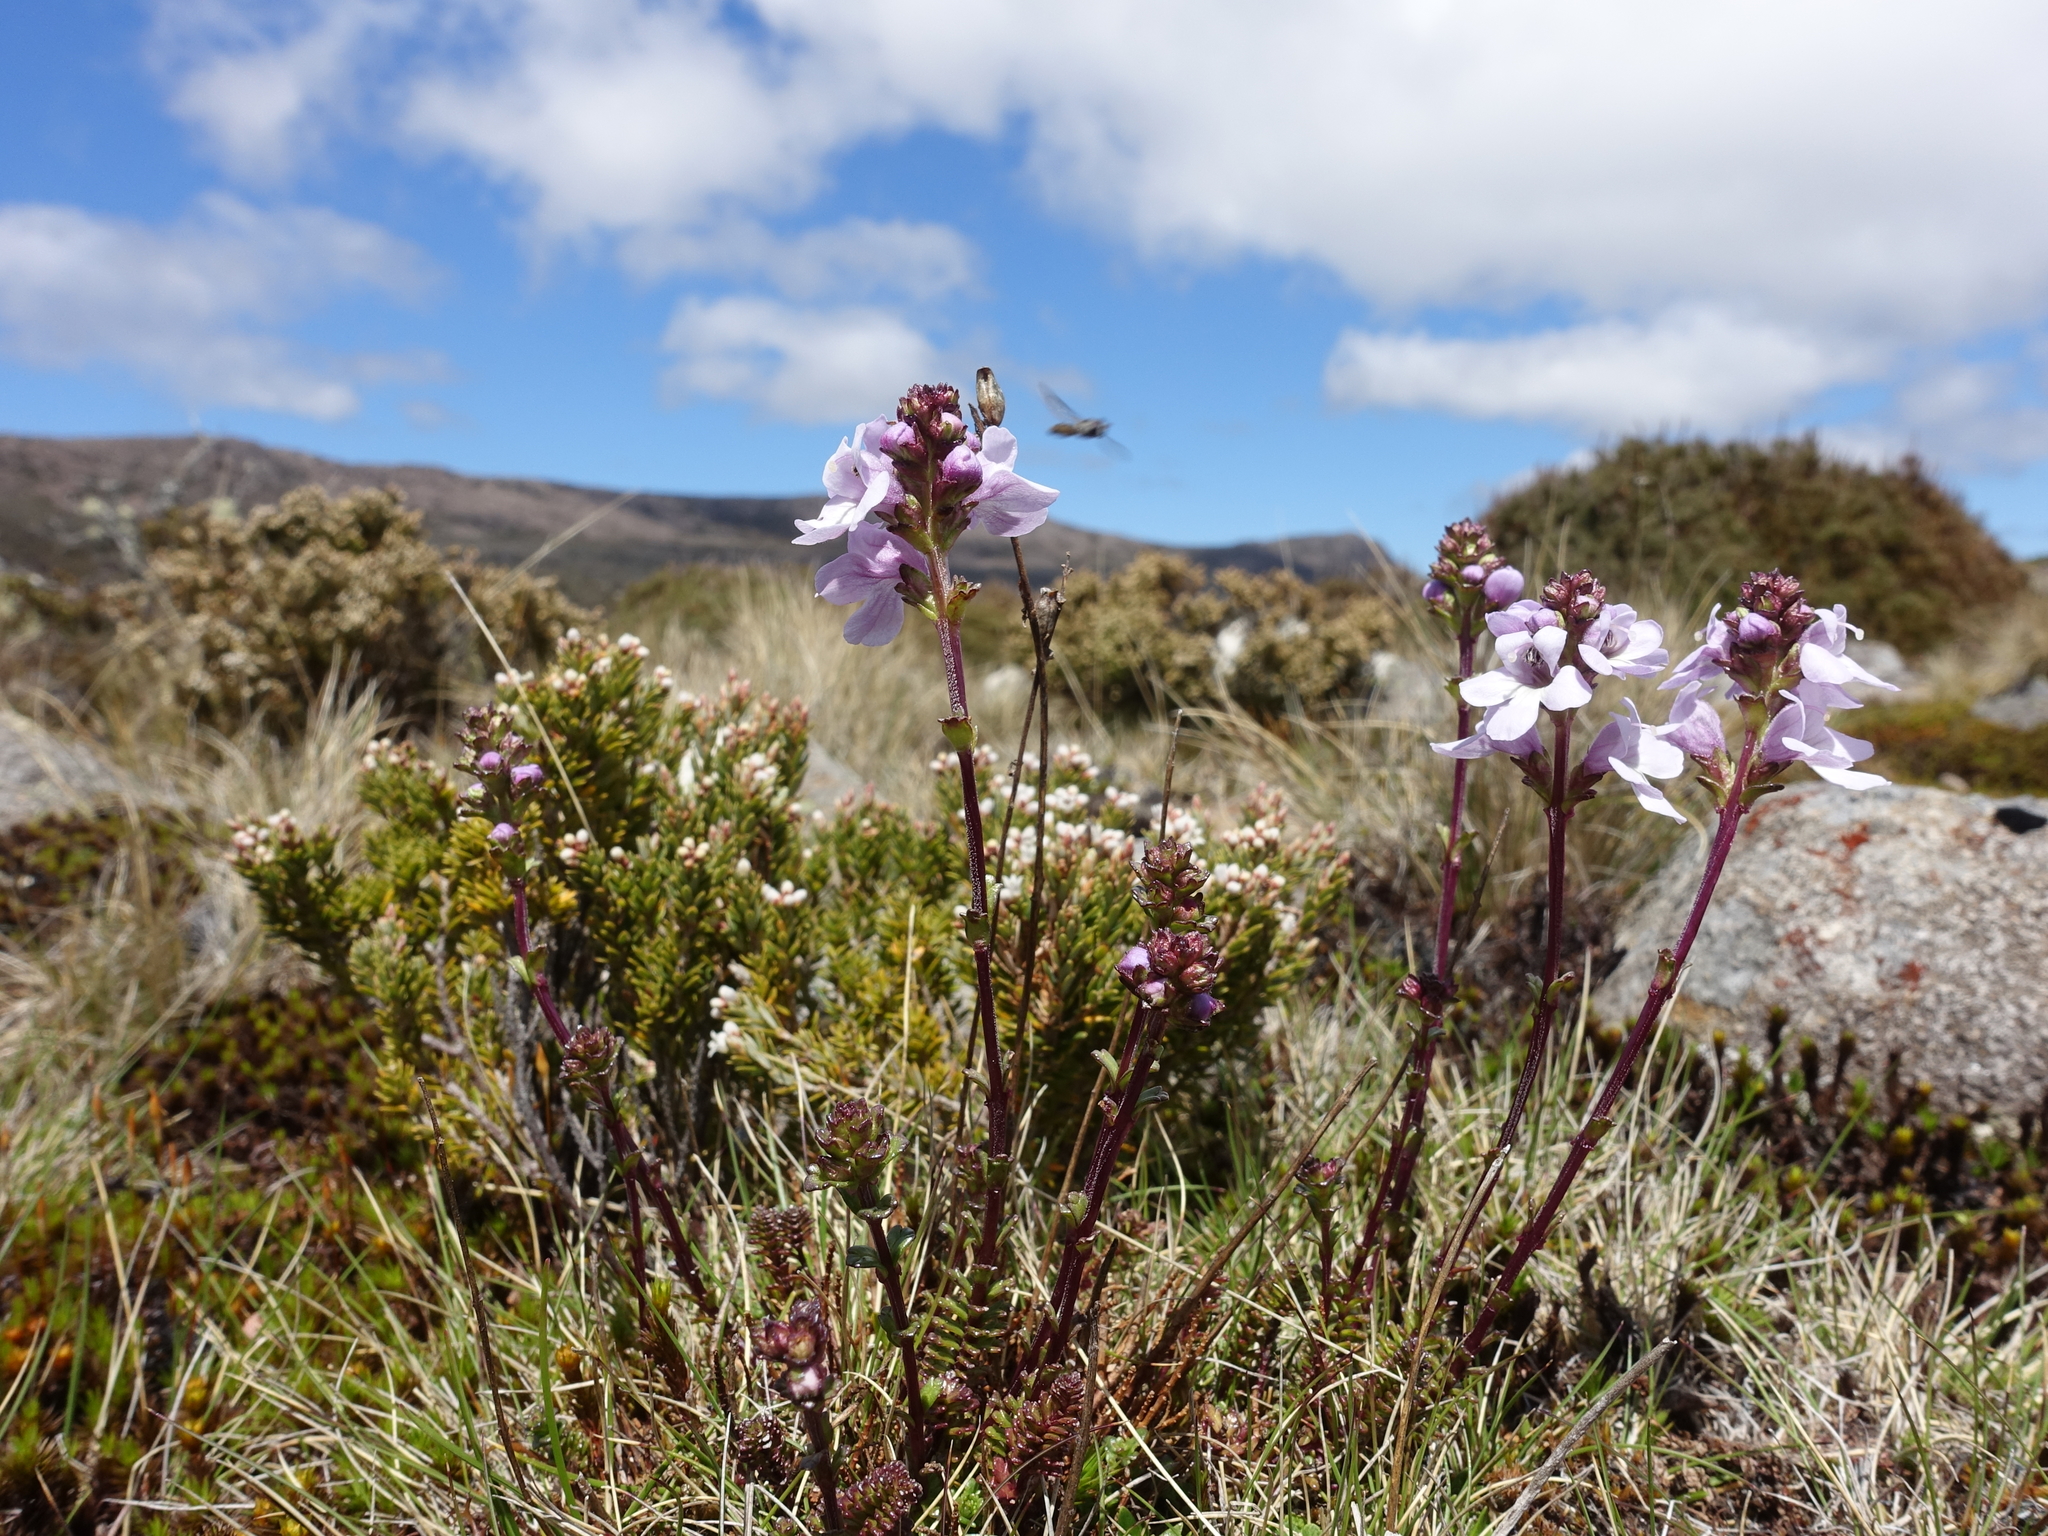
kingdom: Plantae
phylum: Tracheophyta
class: Magnoliopsida
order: Lamiales
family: Orobanchaceae
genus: Euphrasia
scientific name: Euphrasia collina
